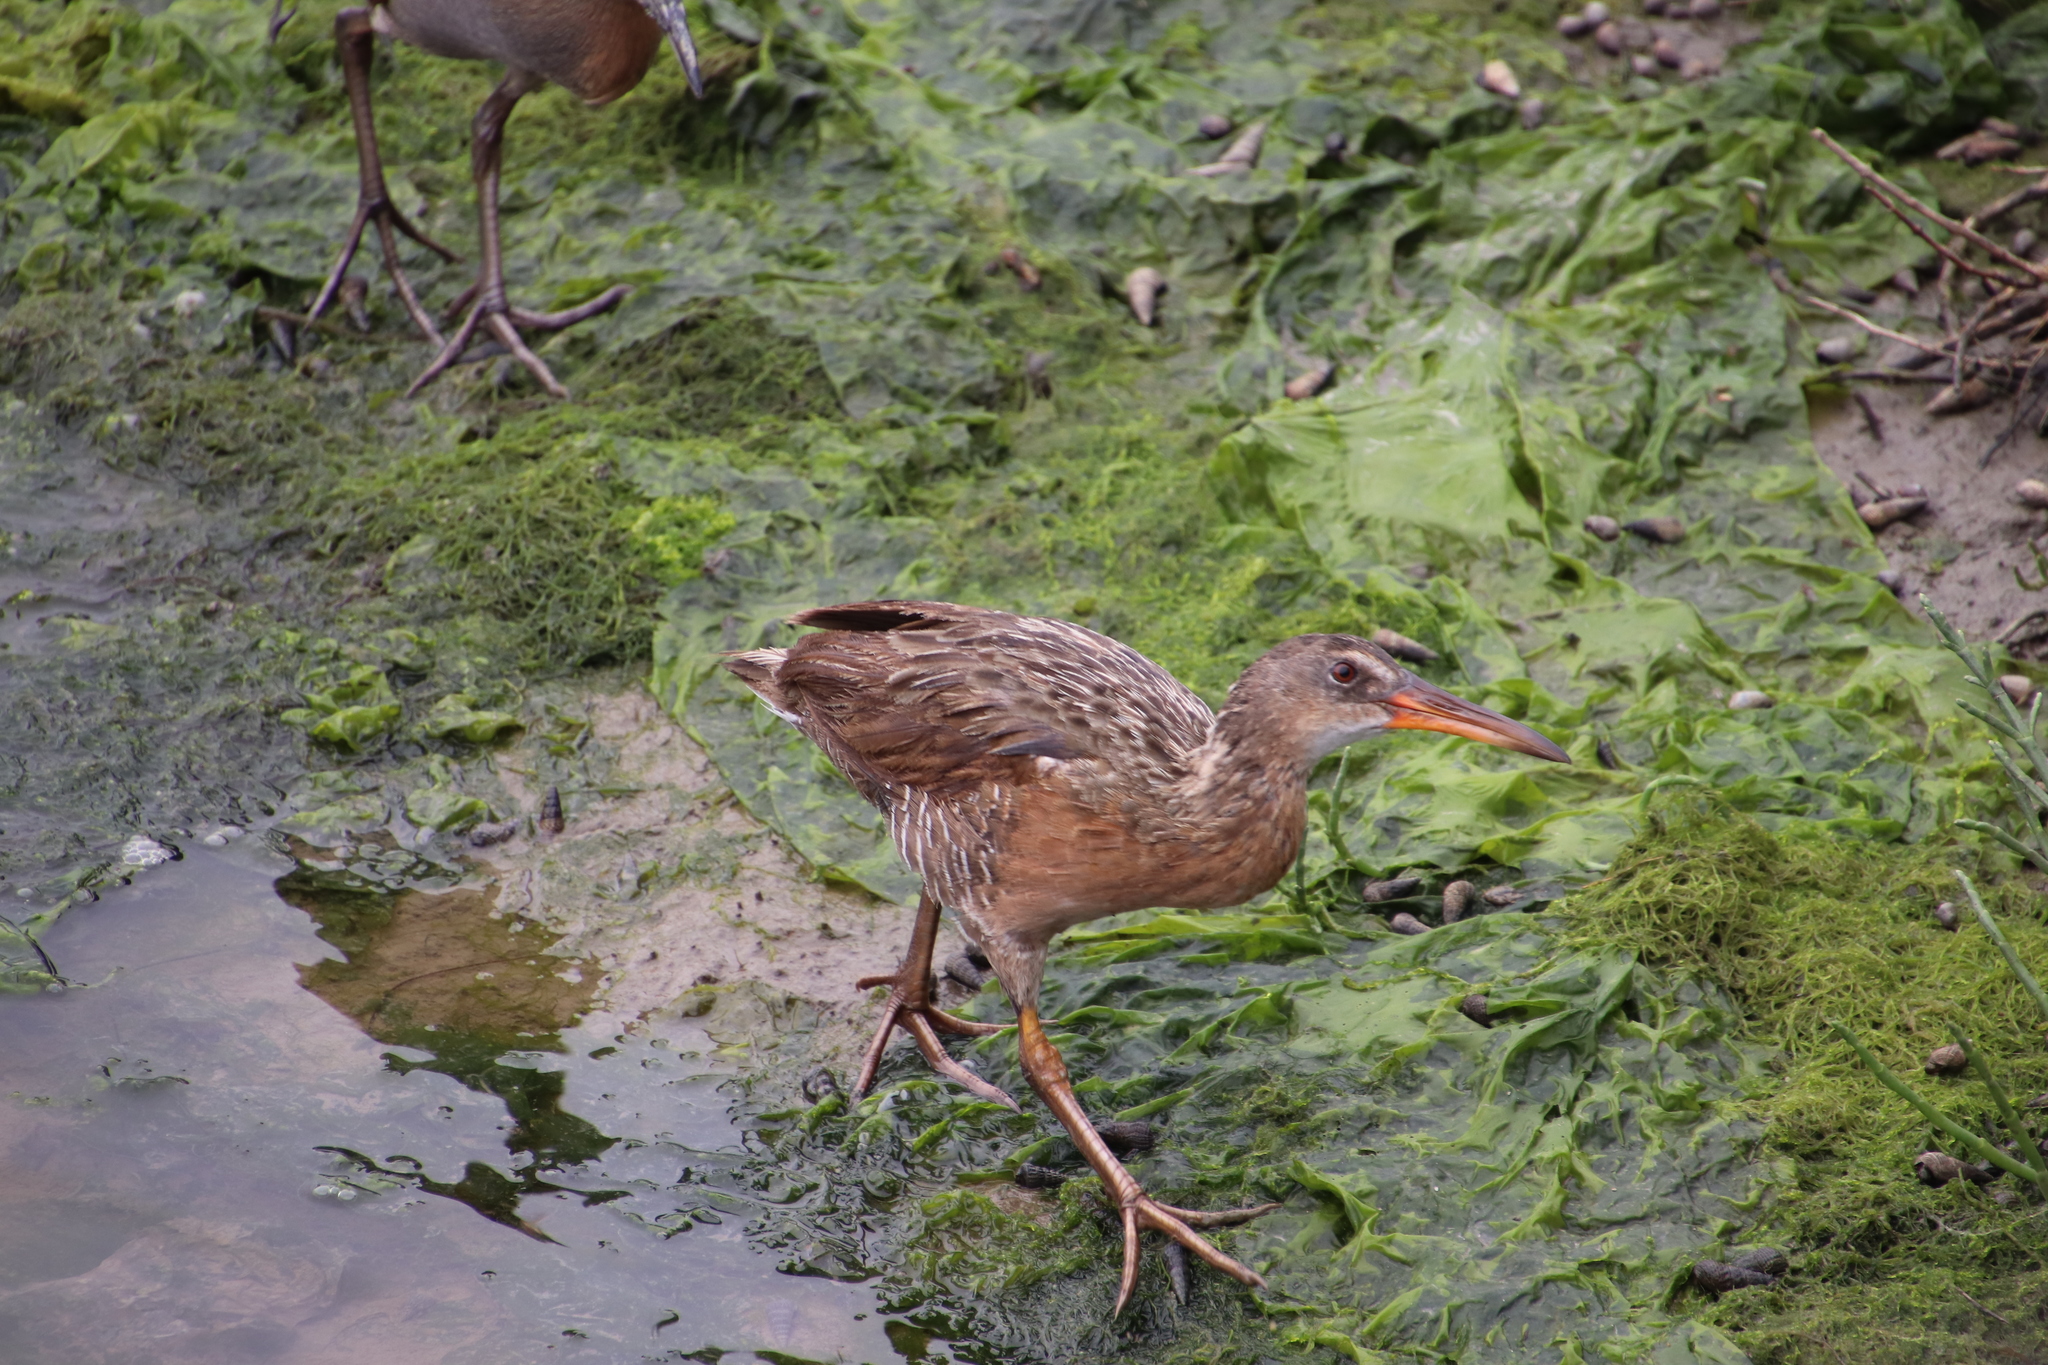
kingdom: Animalia
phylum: Chordata
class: Aves
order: Gruiformes
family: Rallidae
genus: Rallus
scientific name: Rallus obsoletus
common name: Ridgway's rail
